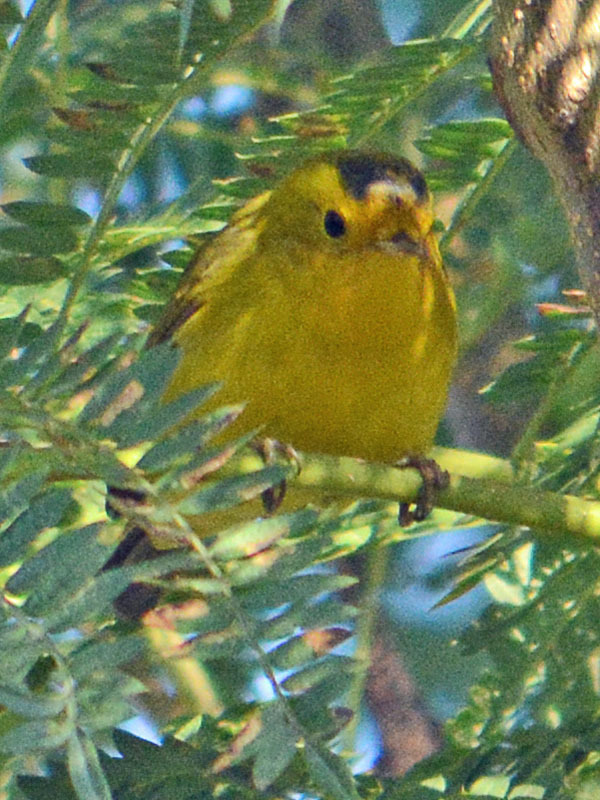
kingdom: Animalia
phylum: Chordata
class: Aves
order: Passeriformes
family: Parulidae
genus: Cardellina
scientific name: Cardellina pusilla
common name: Wilson's warbler
